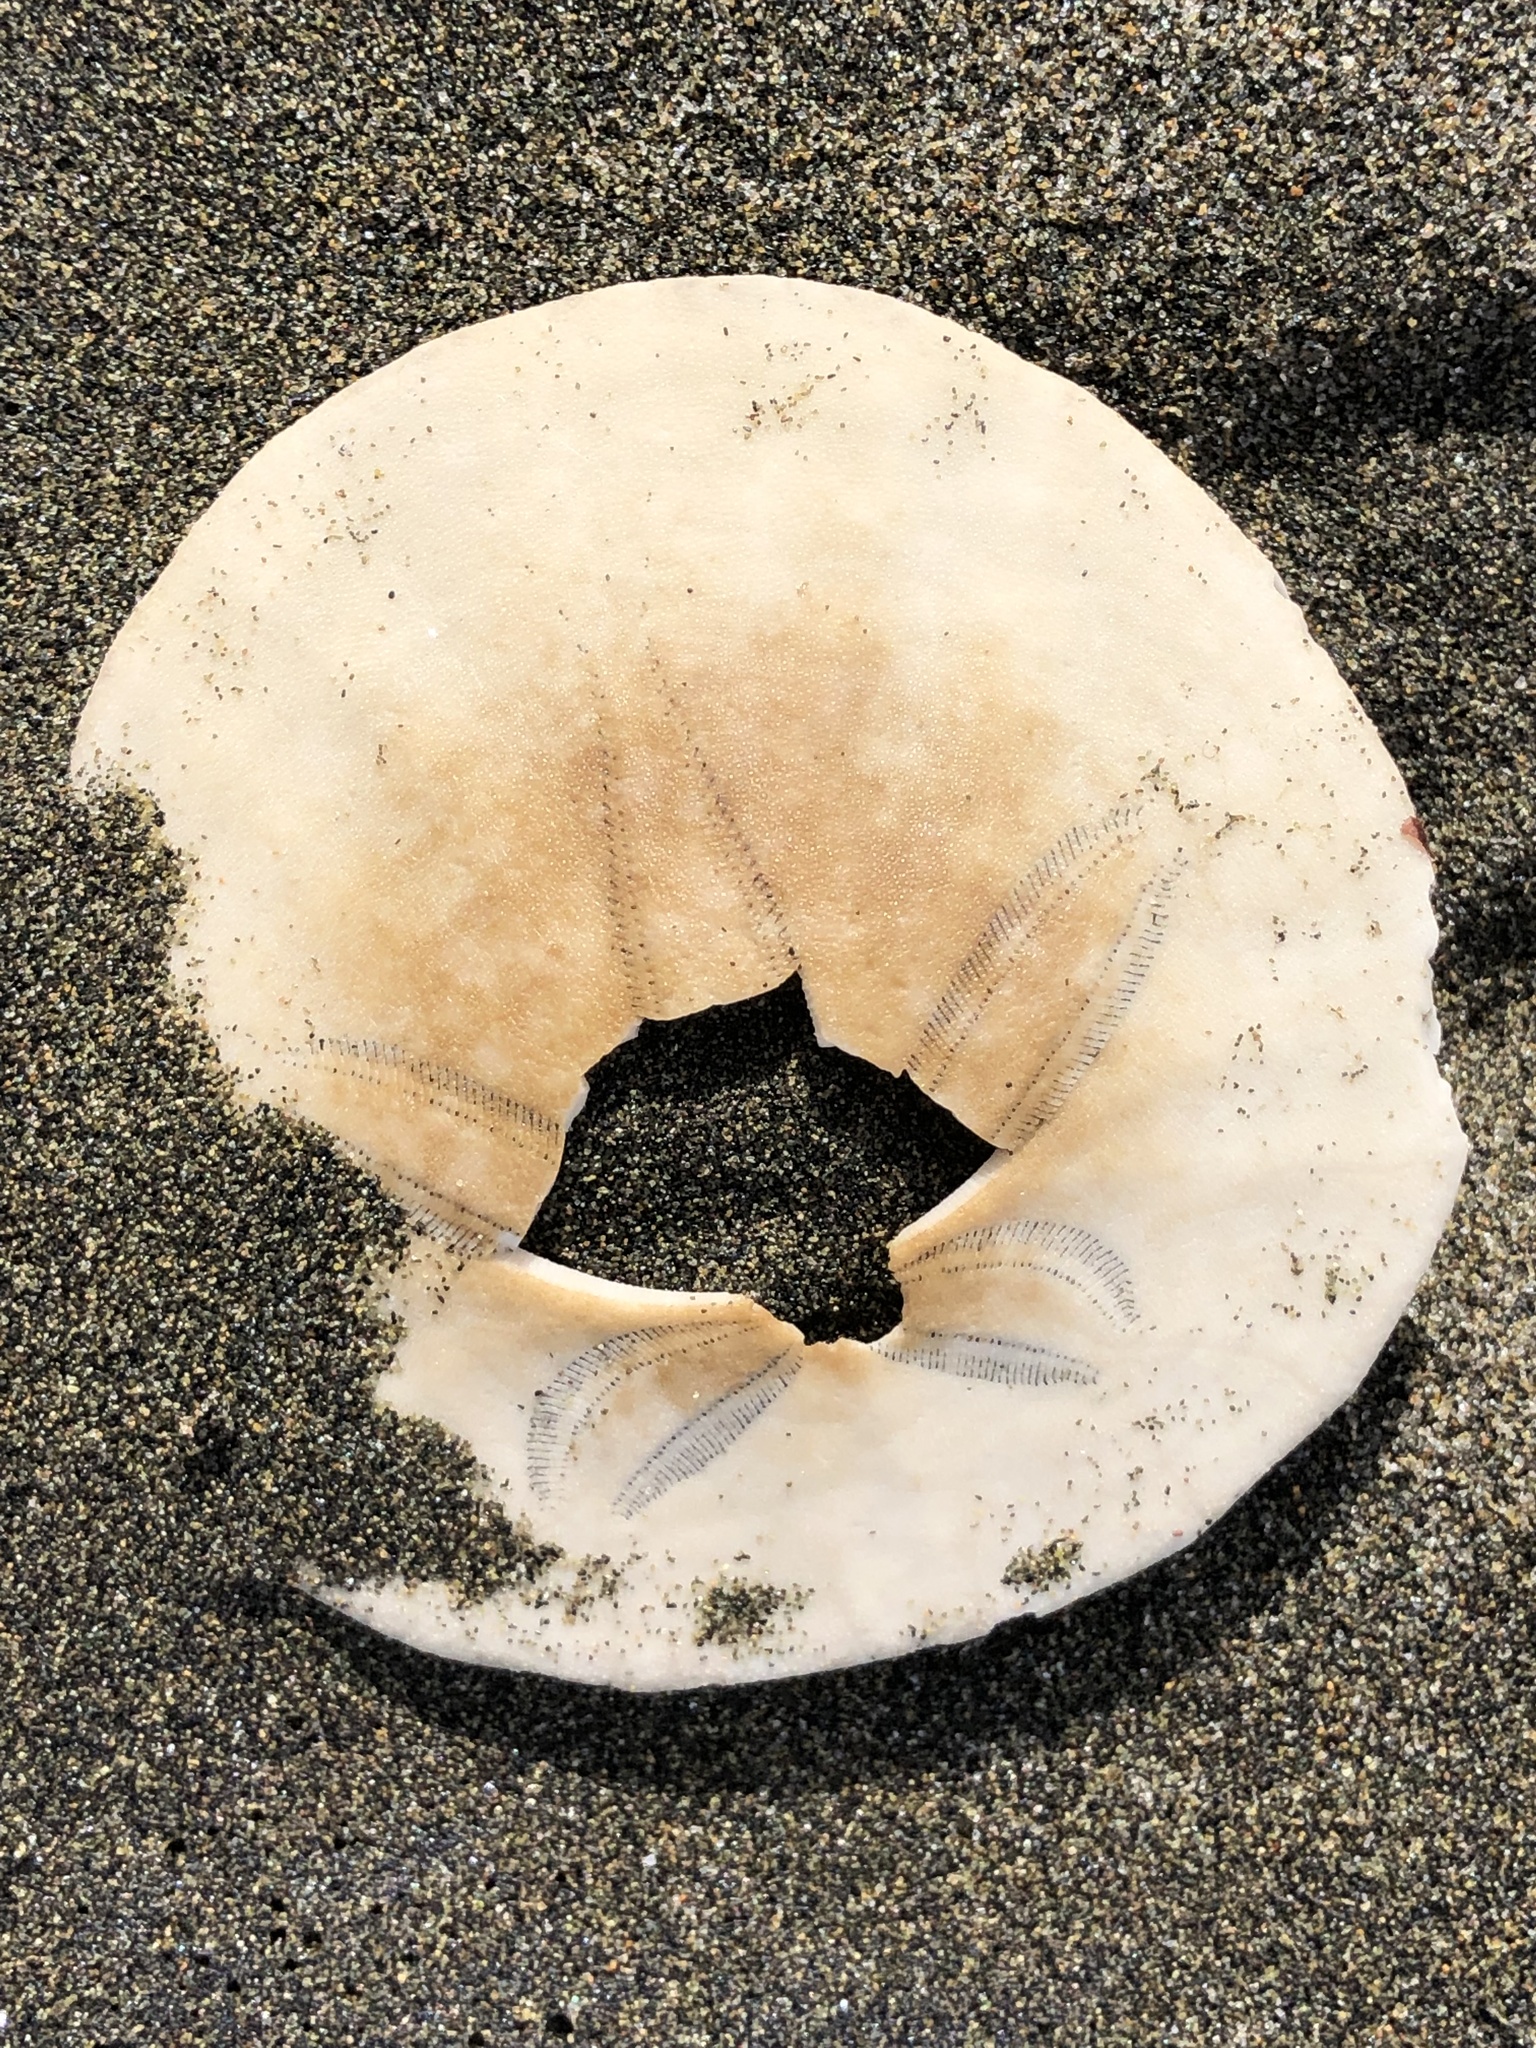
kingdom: Animalia
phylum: Echinodermata
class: Echinoidea
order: Echinolampadacea
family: Dendrasteridae
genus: Dendraster
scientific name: Dendraster excentricus
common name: Eccentric sand dollar sea urchin
